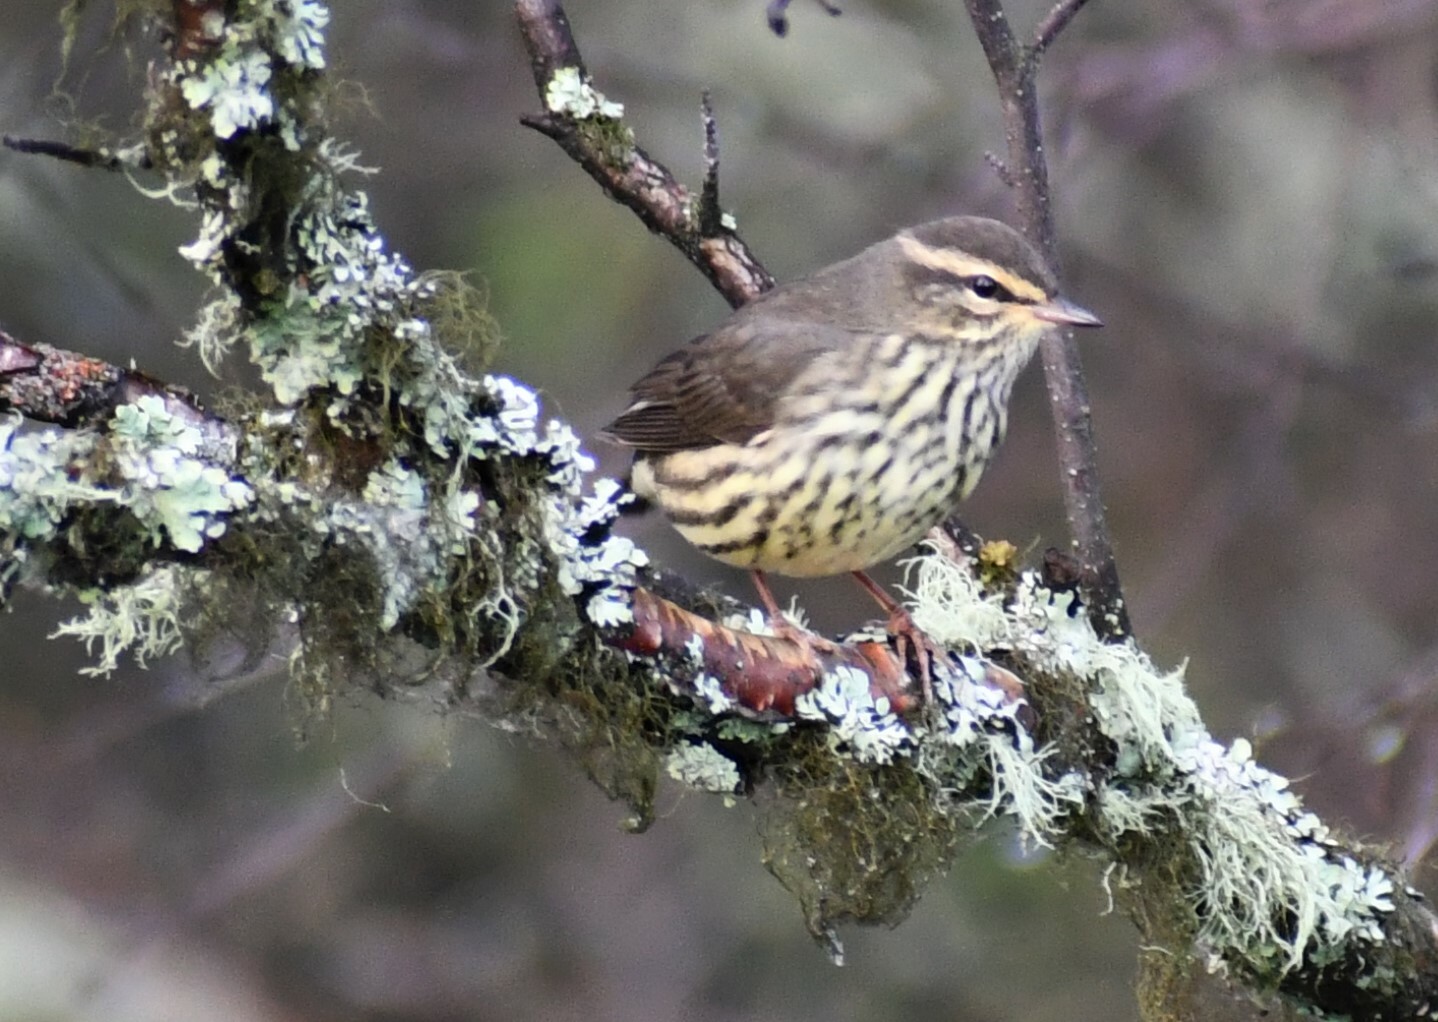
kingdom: Animalia
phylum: Chordata
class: Aves
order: Passeriformes
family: Parulidae
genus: Parkesia
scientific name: Parkesia noveboracensis
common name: Northern waterthrush
